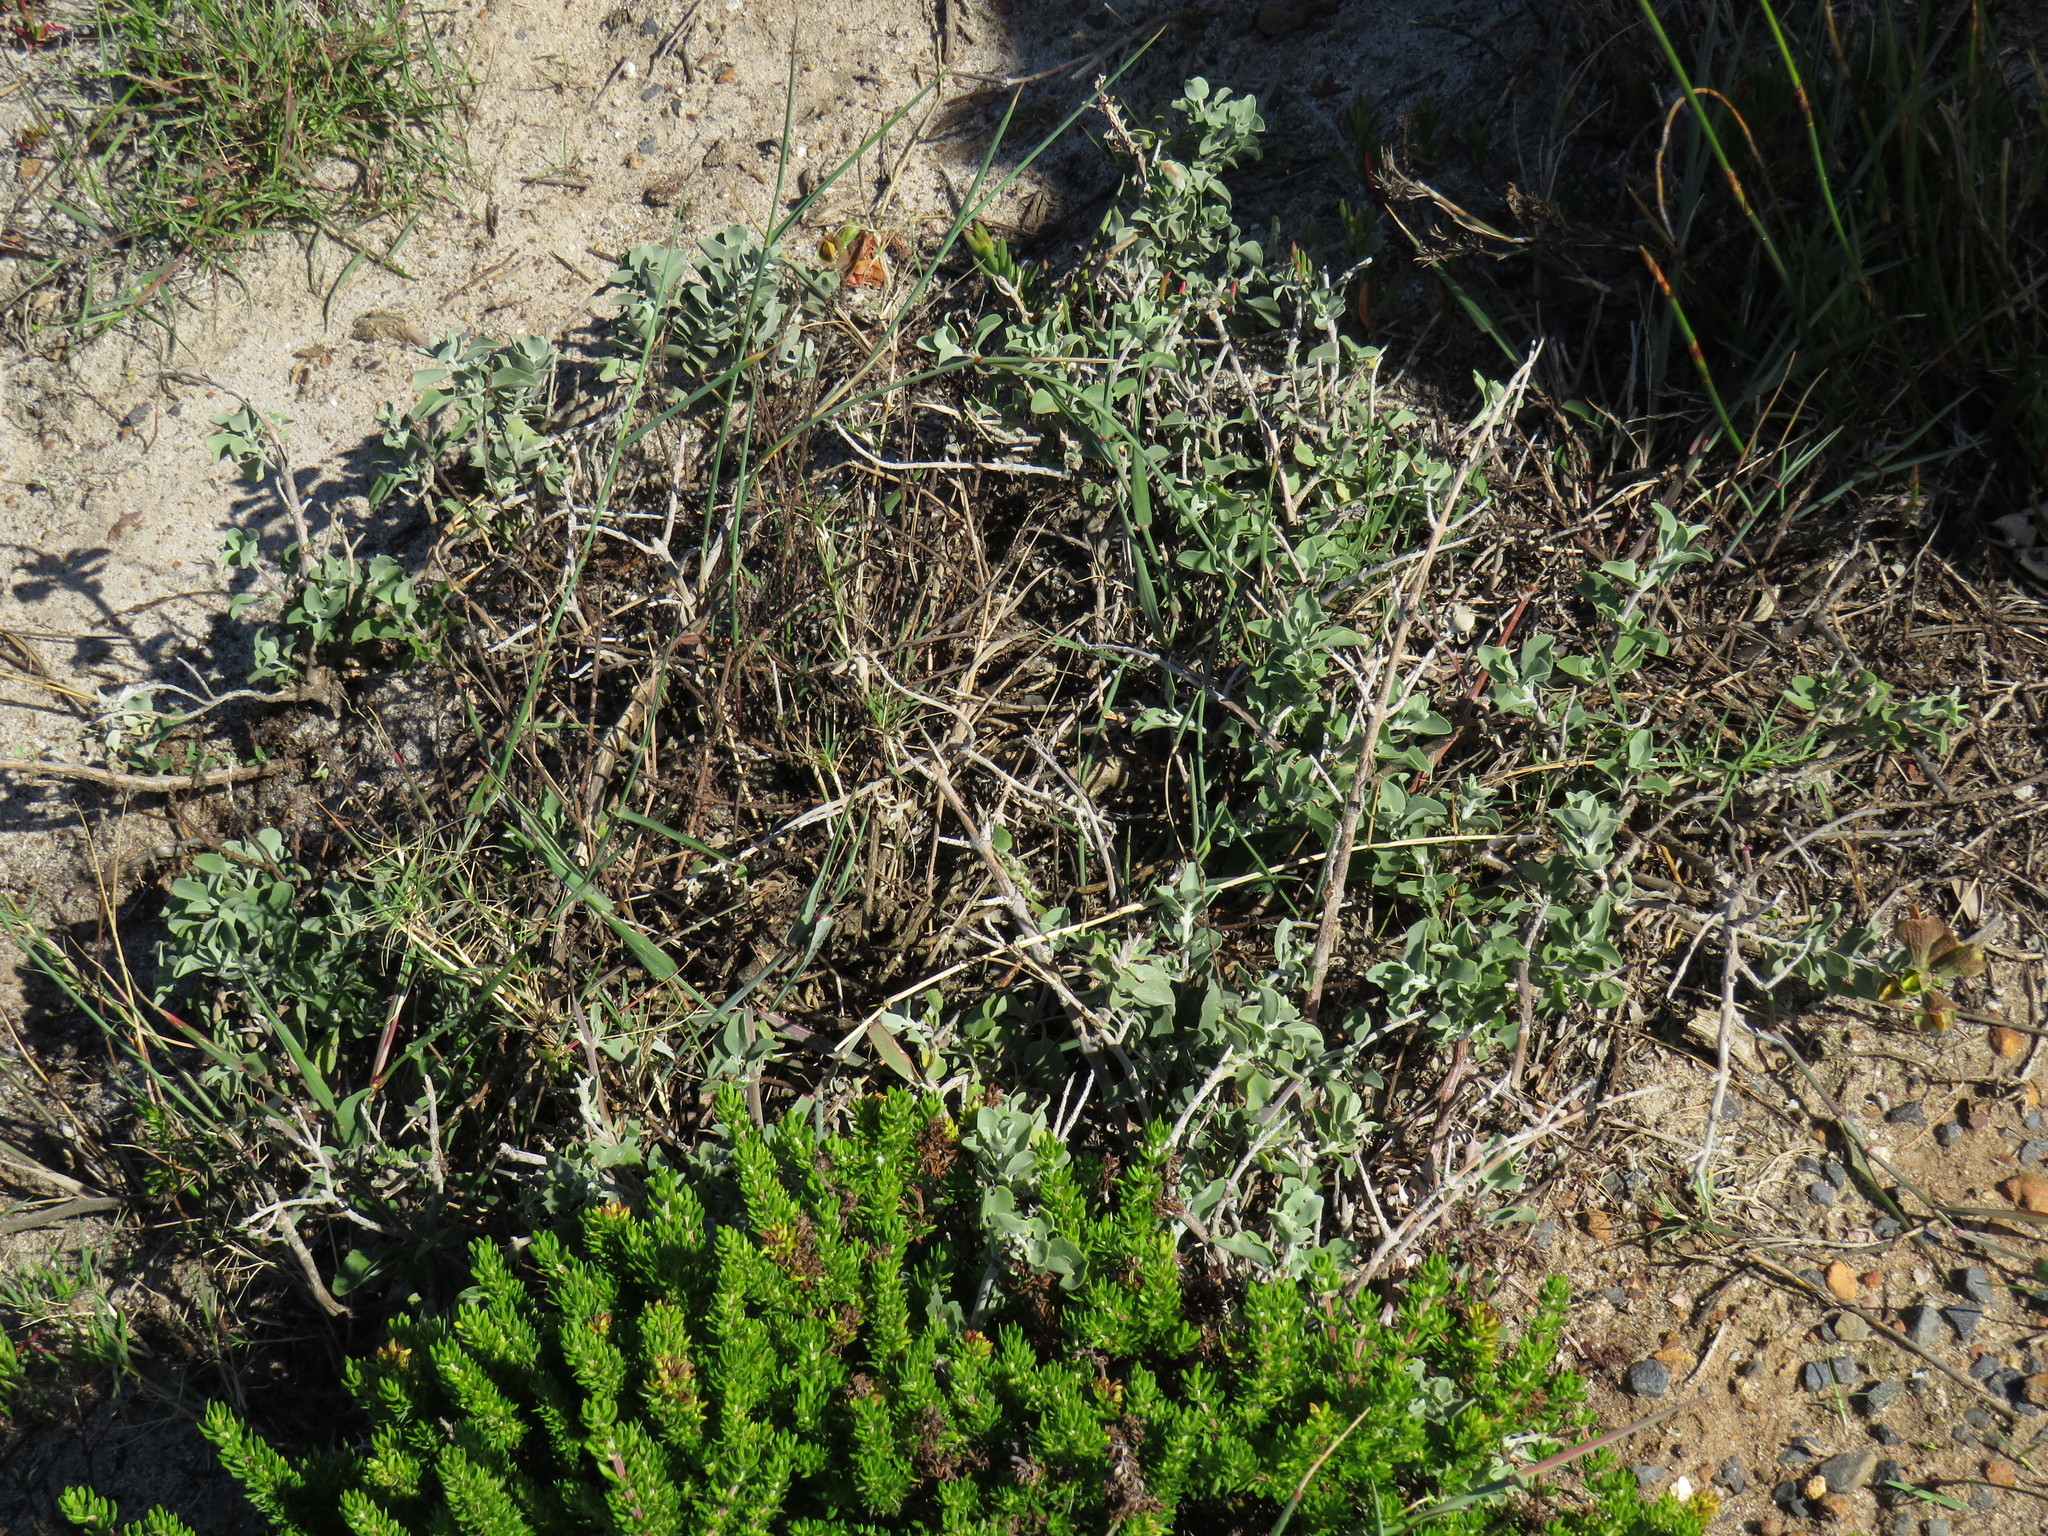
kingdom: Plantae
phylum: Tracheophyta
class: Magnoliopsida
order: Lamiales
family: Lamiaceae
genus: Salvia
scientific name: Salvia aurea
